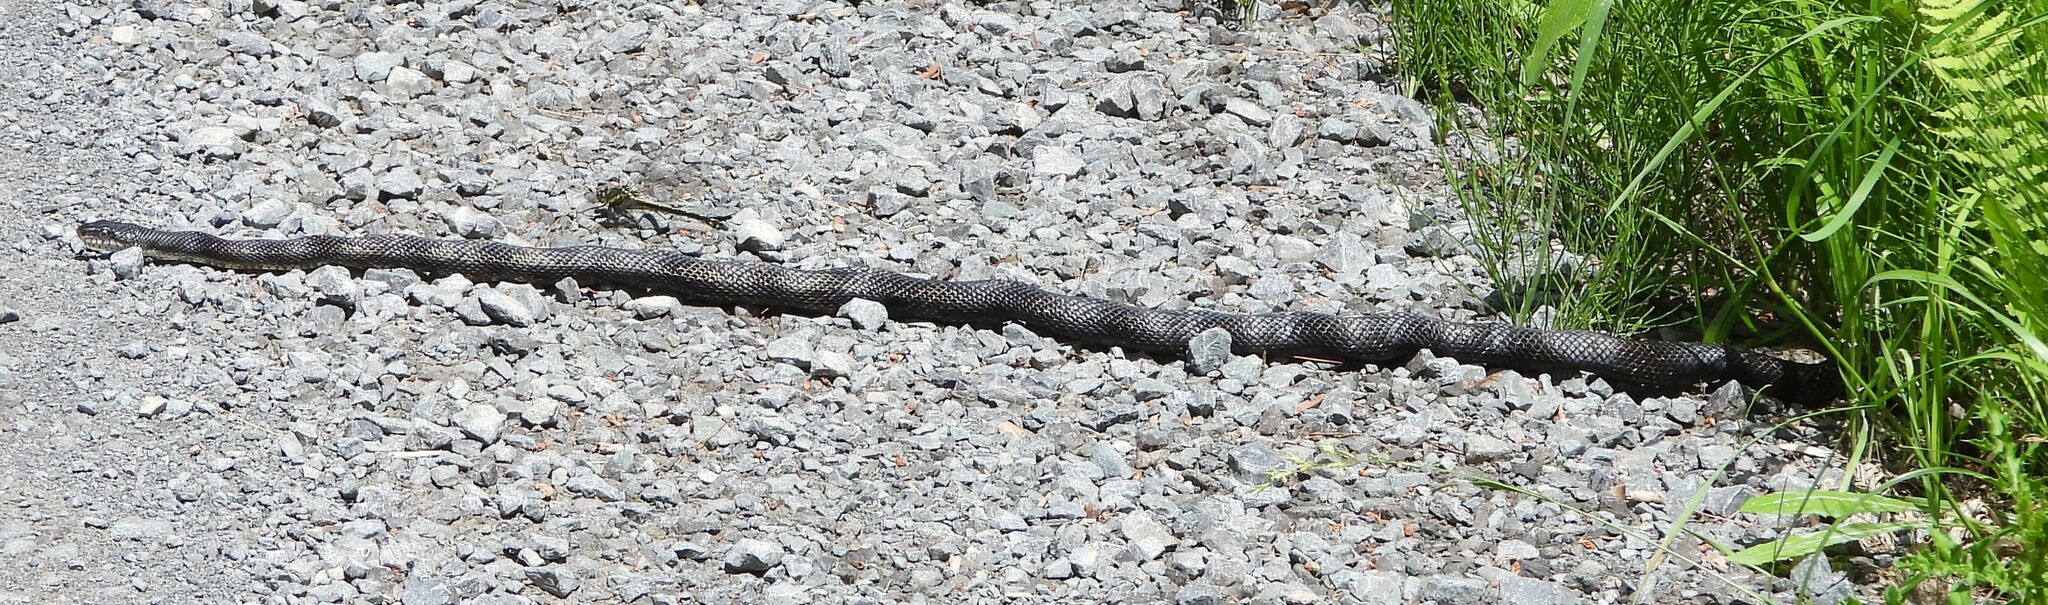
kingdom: Animalia
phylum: Chordata
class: Squamata
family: Colubridae
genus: Pantherophis
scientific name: Pantherophis spiloides
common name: Gray rat snake
